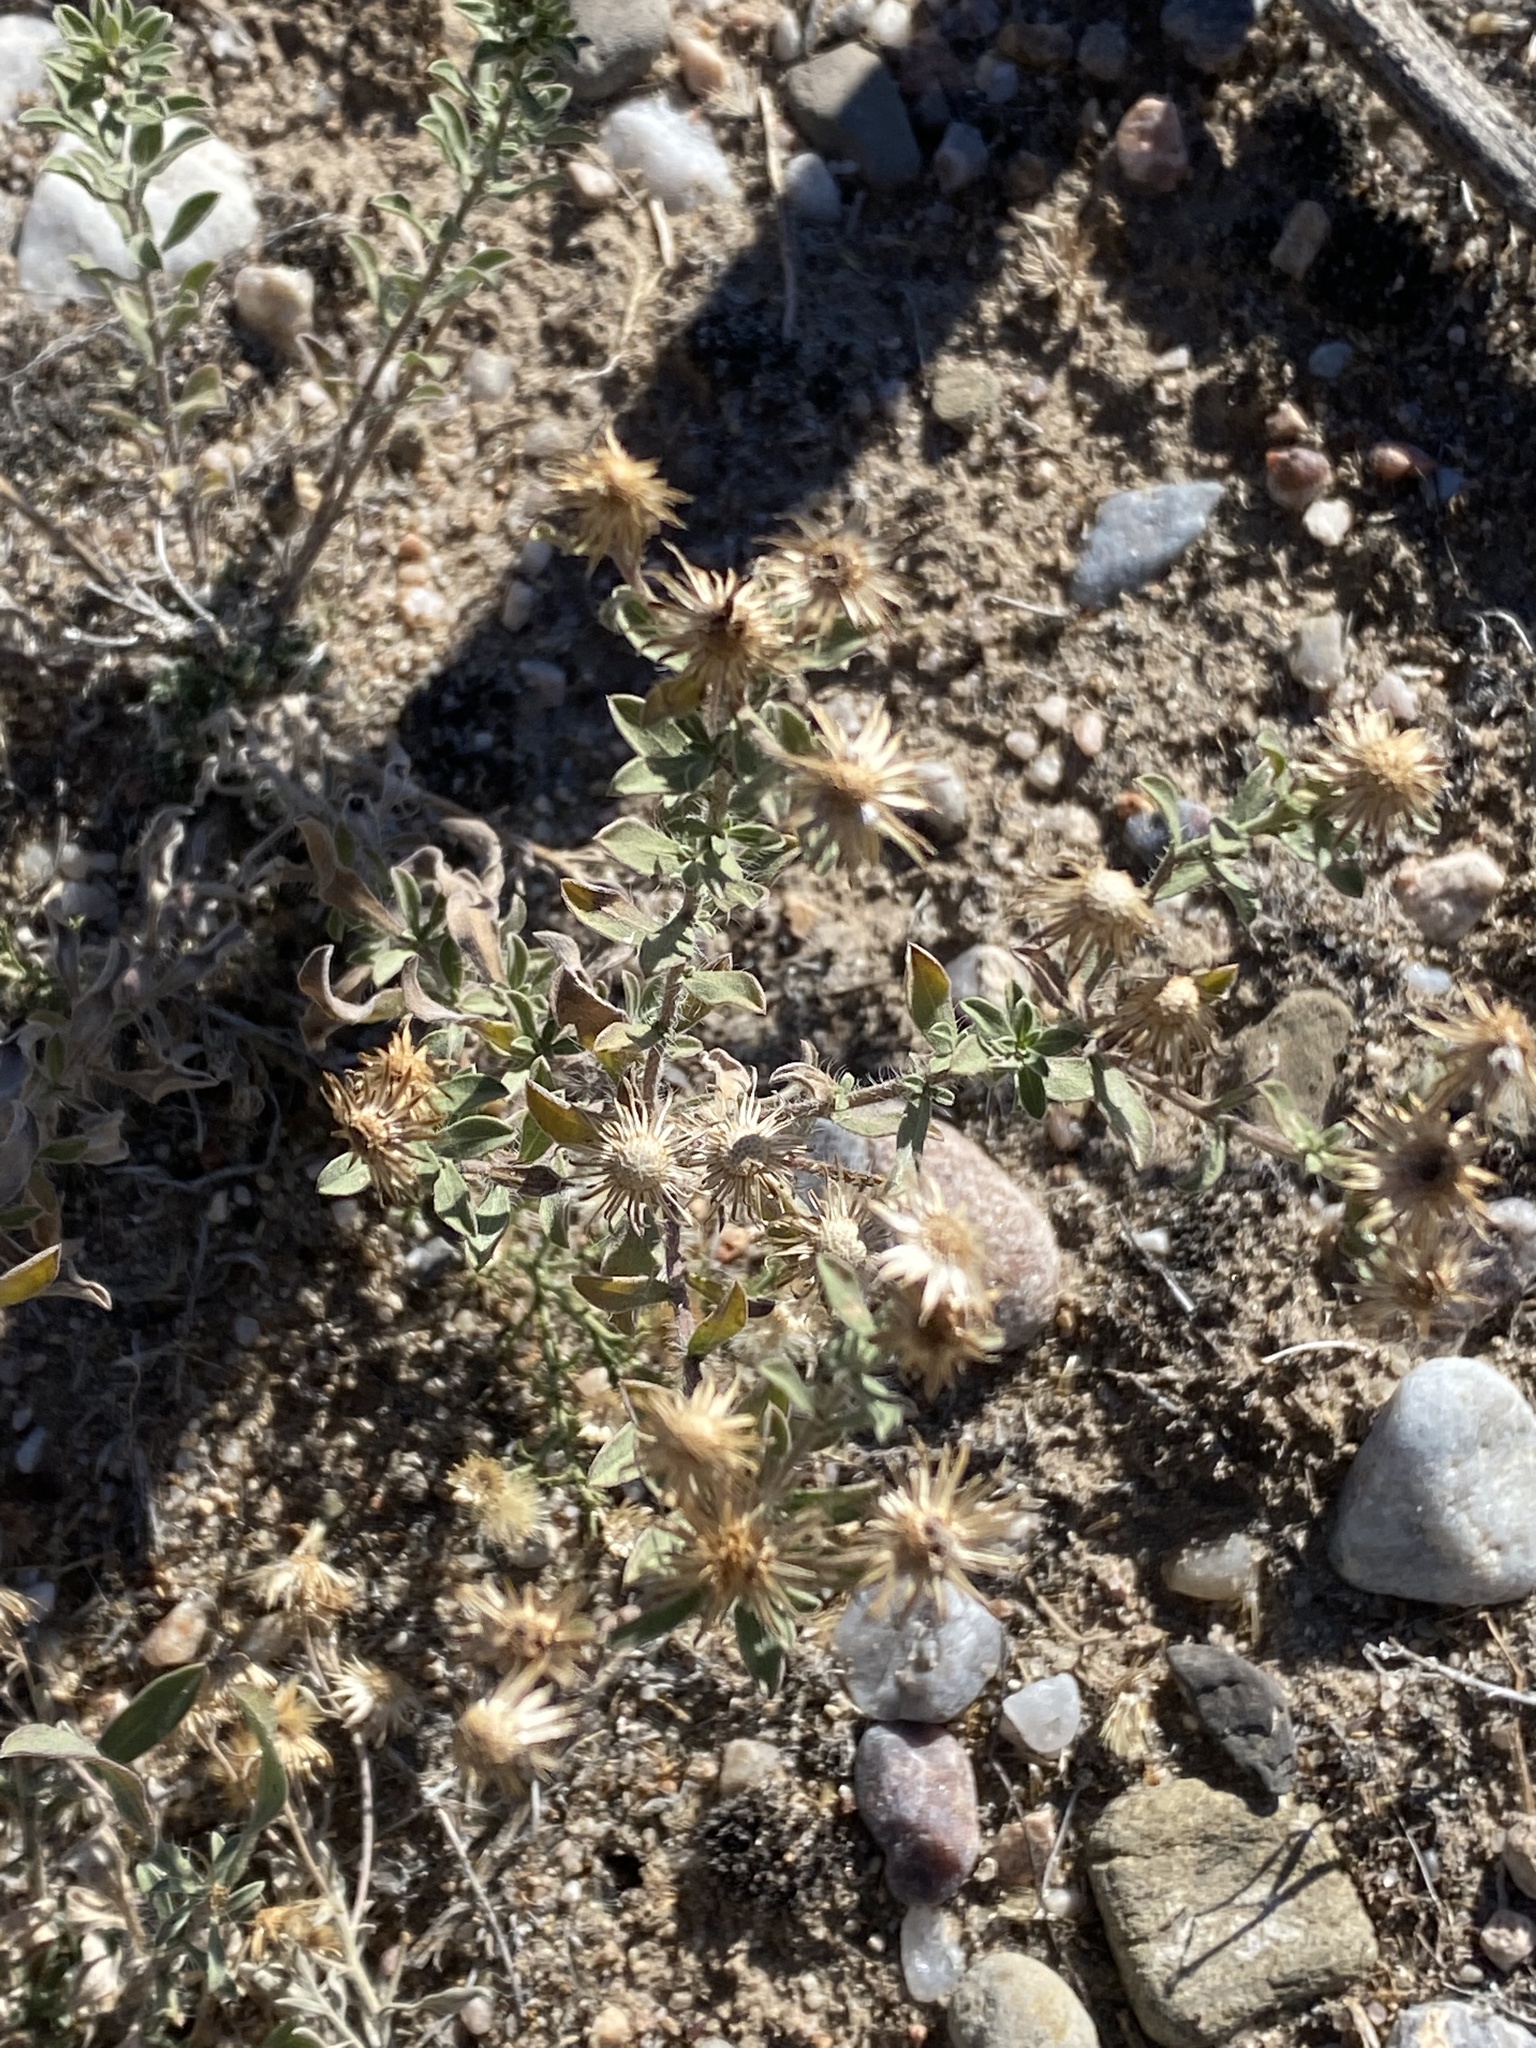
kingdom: Plantae
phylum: Tracheophyta
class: Magnoliopsida
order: Asterales
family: Asteraceae
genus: Heterotheca
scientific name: Heterotheca zionensis
